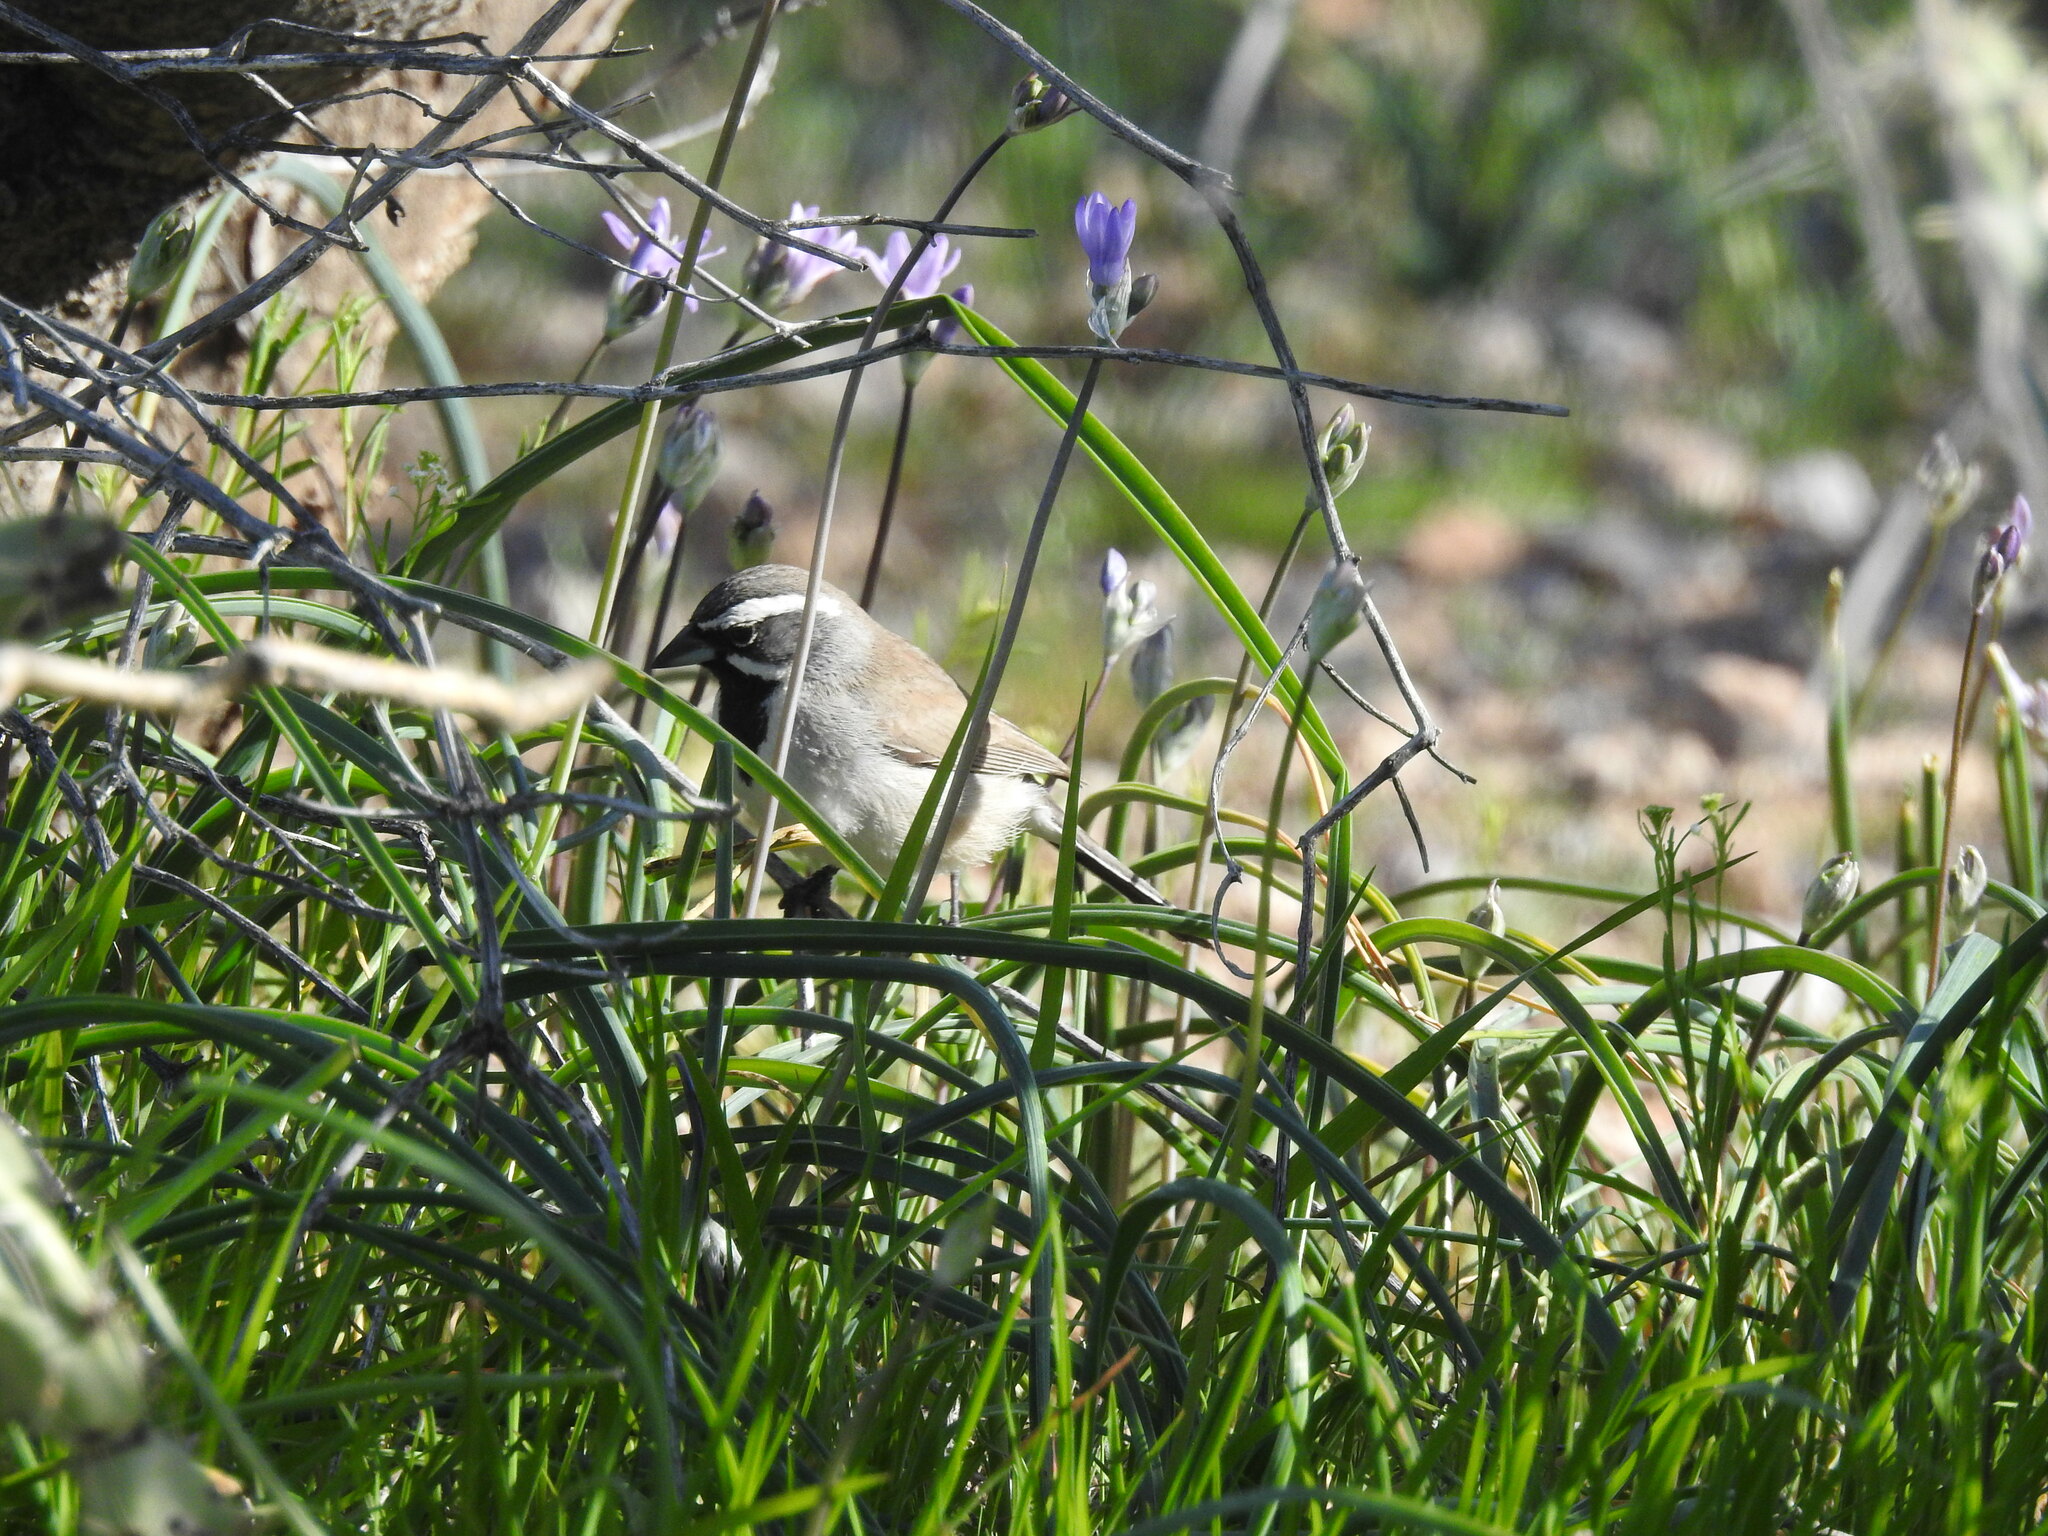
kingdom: Animalia
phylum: Chordata
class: Aves
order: Passeriformes
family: Passerellidae
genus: Amphispiza
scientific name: Amphispiza bilineata
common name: Black-throated sparrow
